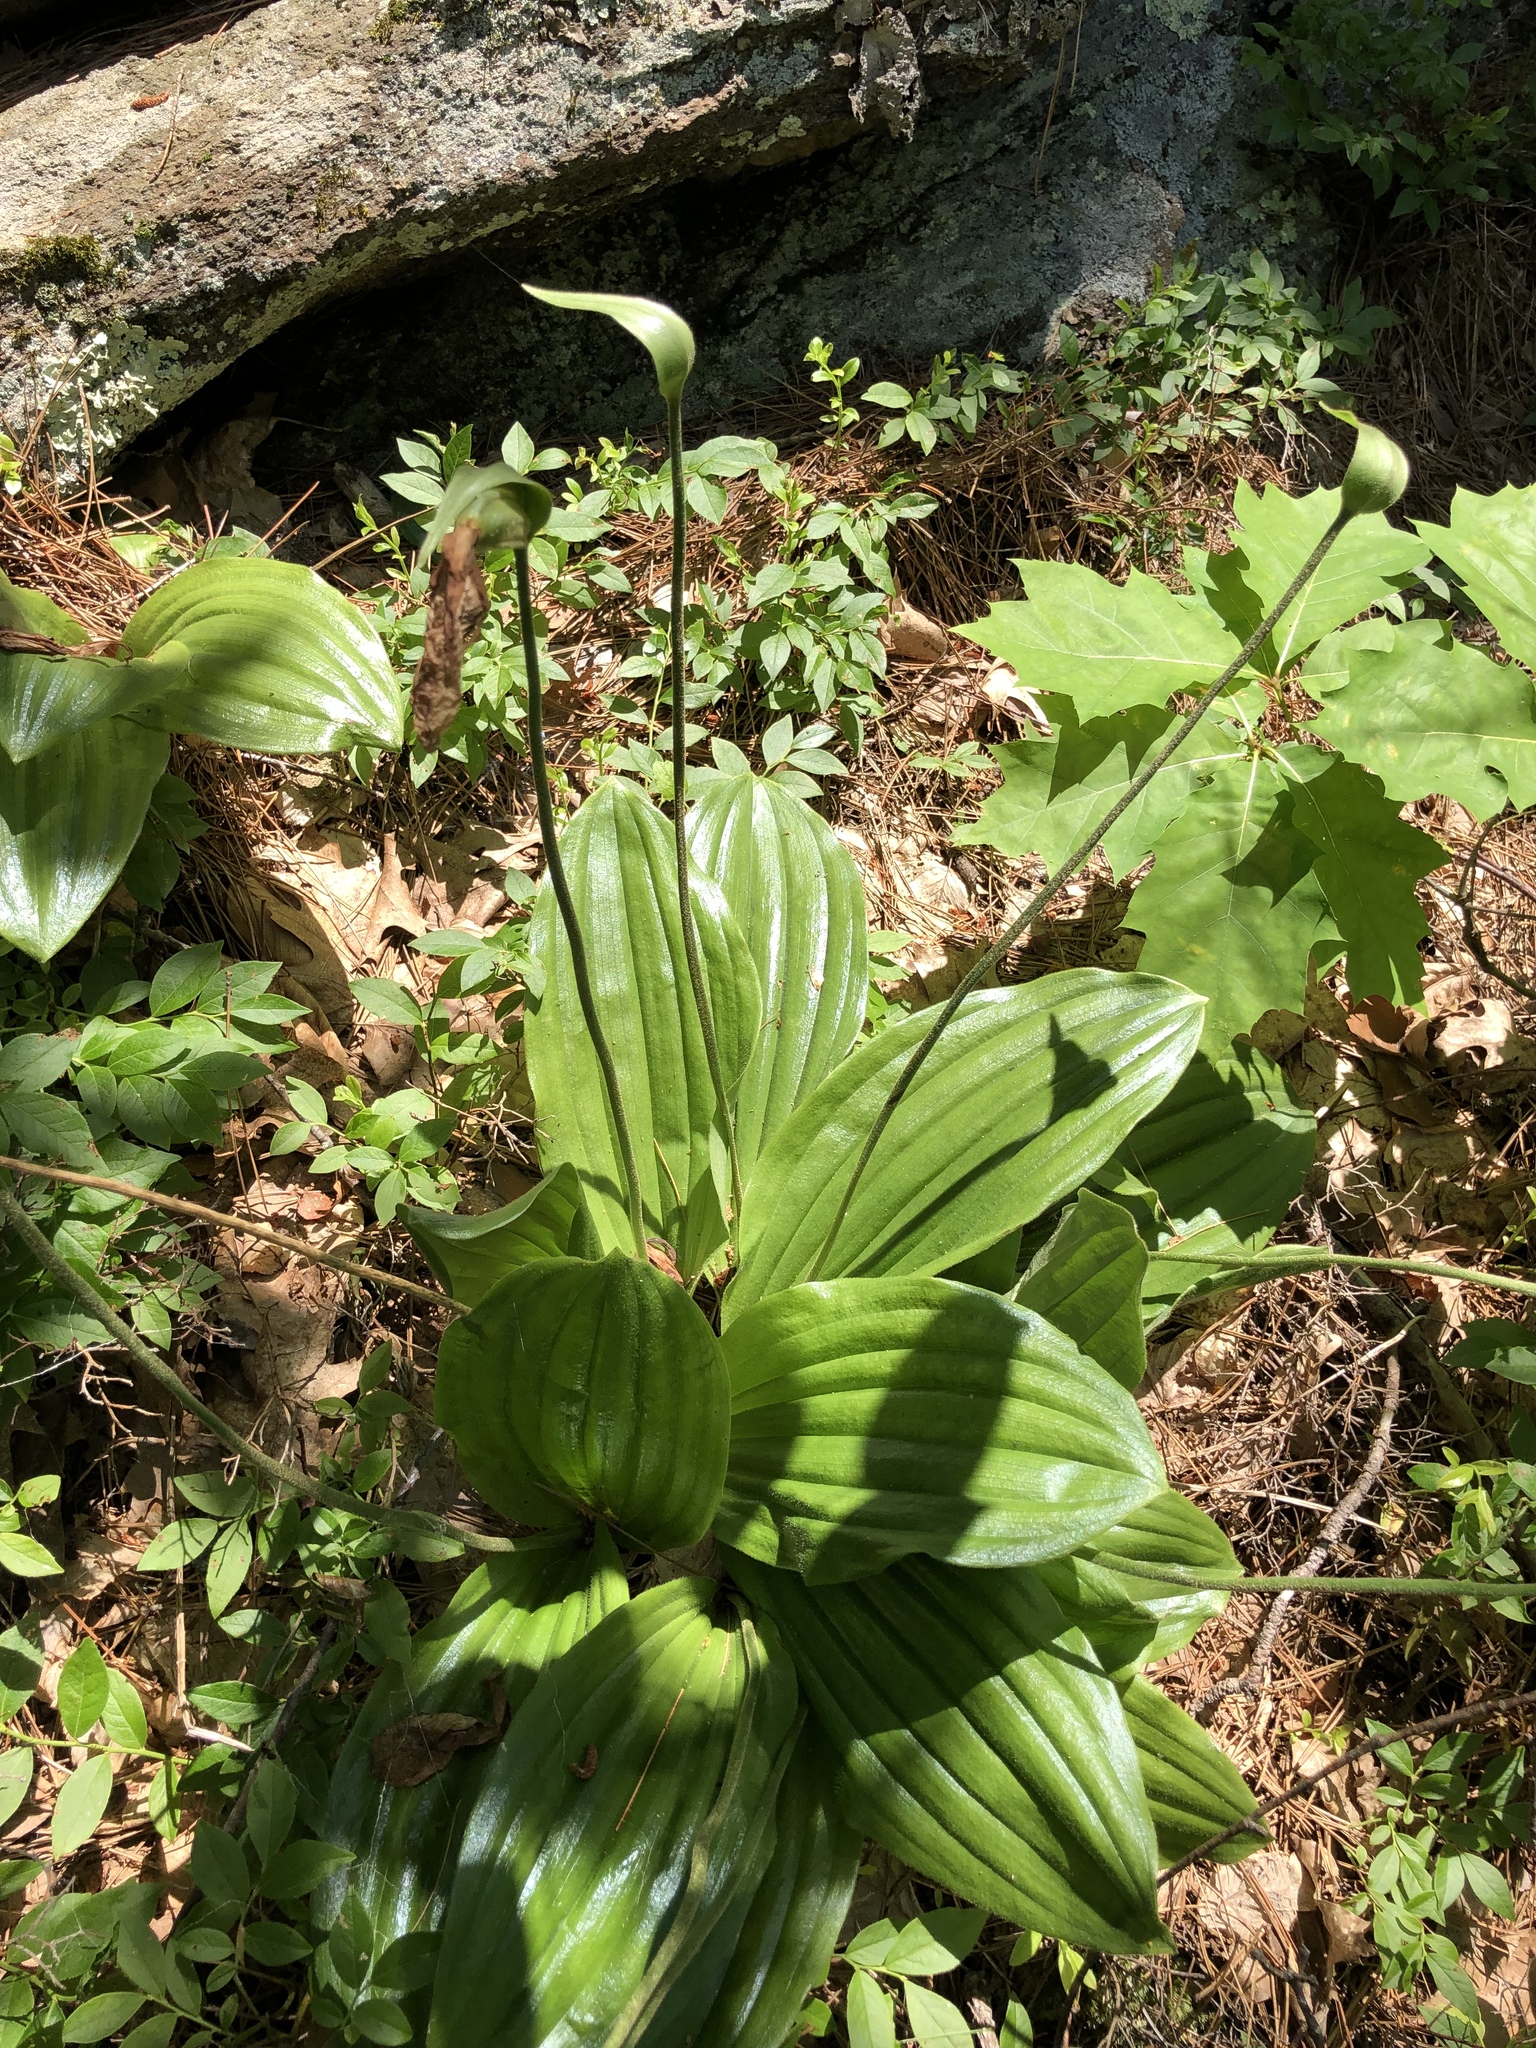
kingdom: Plantae
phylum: Tracheophyta
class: Liliopsida
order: Asparagales
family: Orchidaceae
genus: Cypripedium
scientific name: Cypripedium acaule
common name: Pink lady's-slipper
